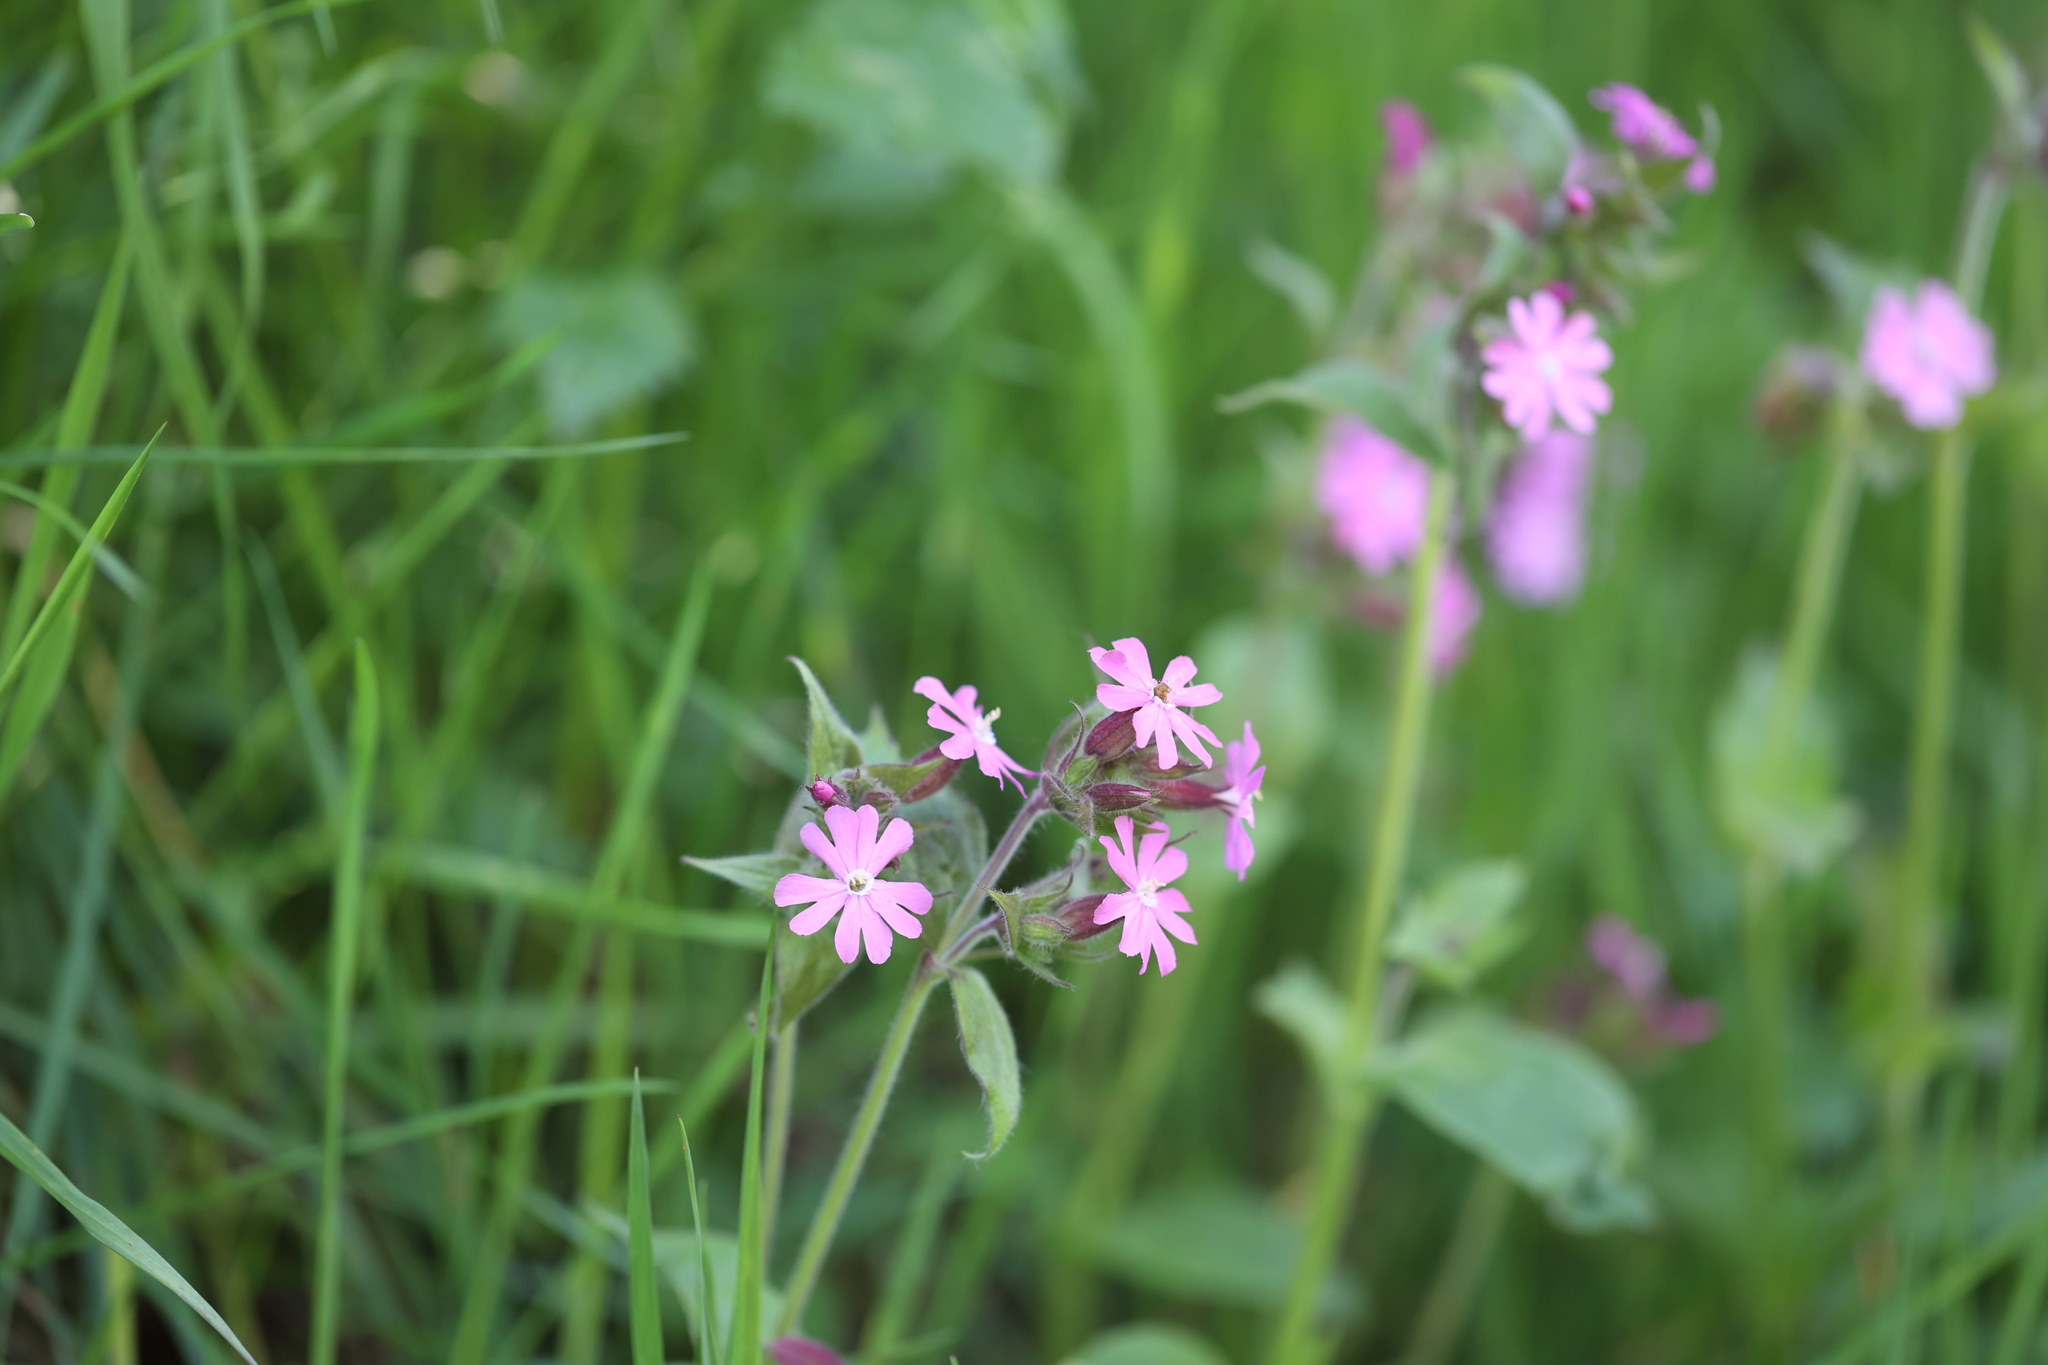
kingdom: Plantae
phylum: Tracheophyta
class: Magnoliopsida
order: Caryophyllales
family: Caryophyllaceae
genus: Silene
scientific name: Silene dioica
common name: Red campion
